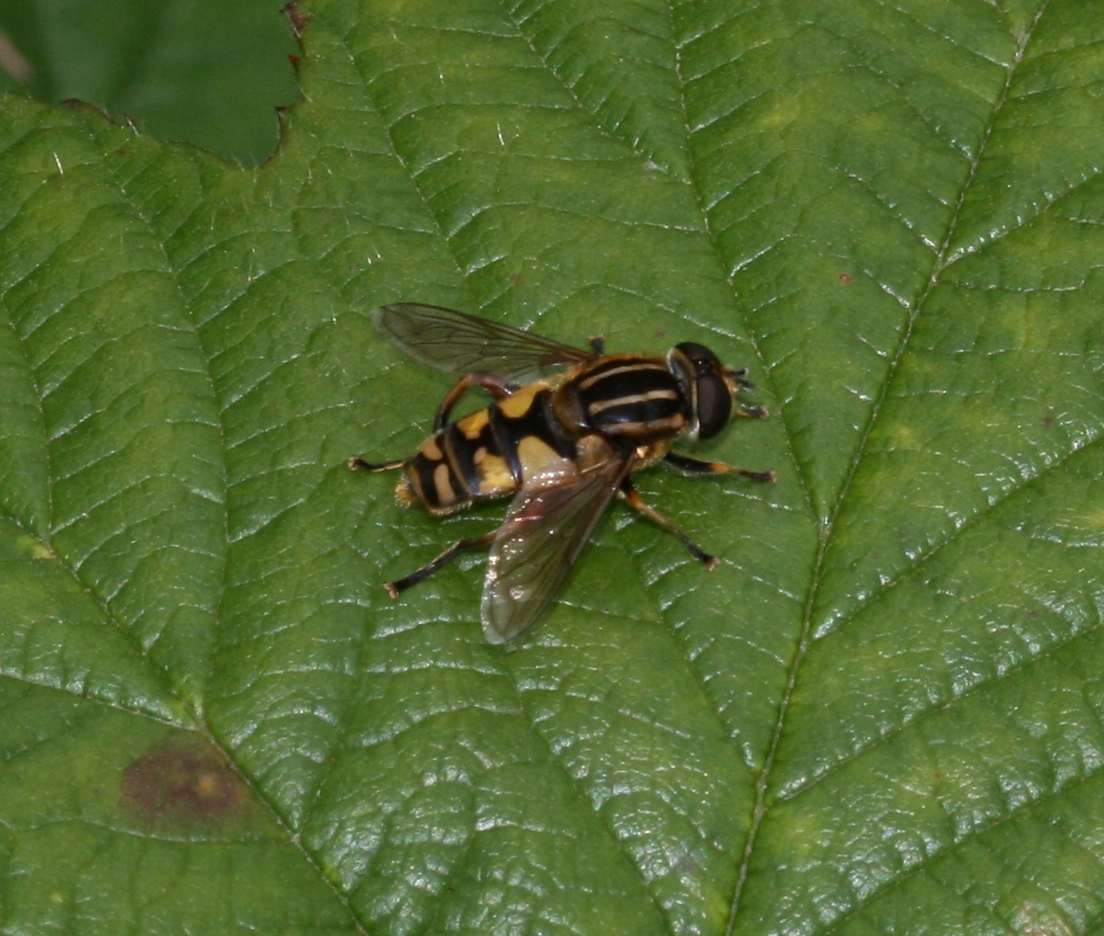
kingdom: Animalia
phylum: Arthropoda
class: Insecta
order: Diptera
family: Syrphidae
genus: Helophilus
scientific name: Helophilus pendulus
